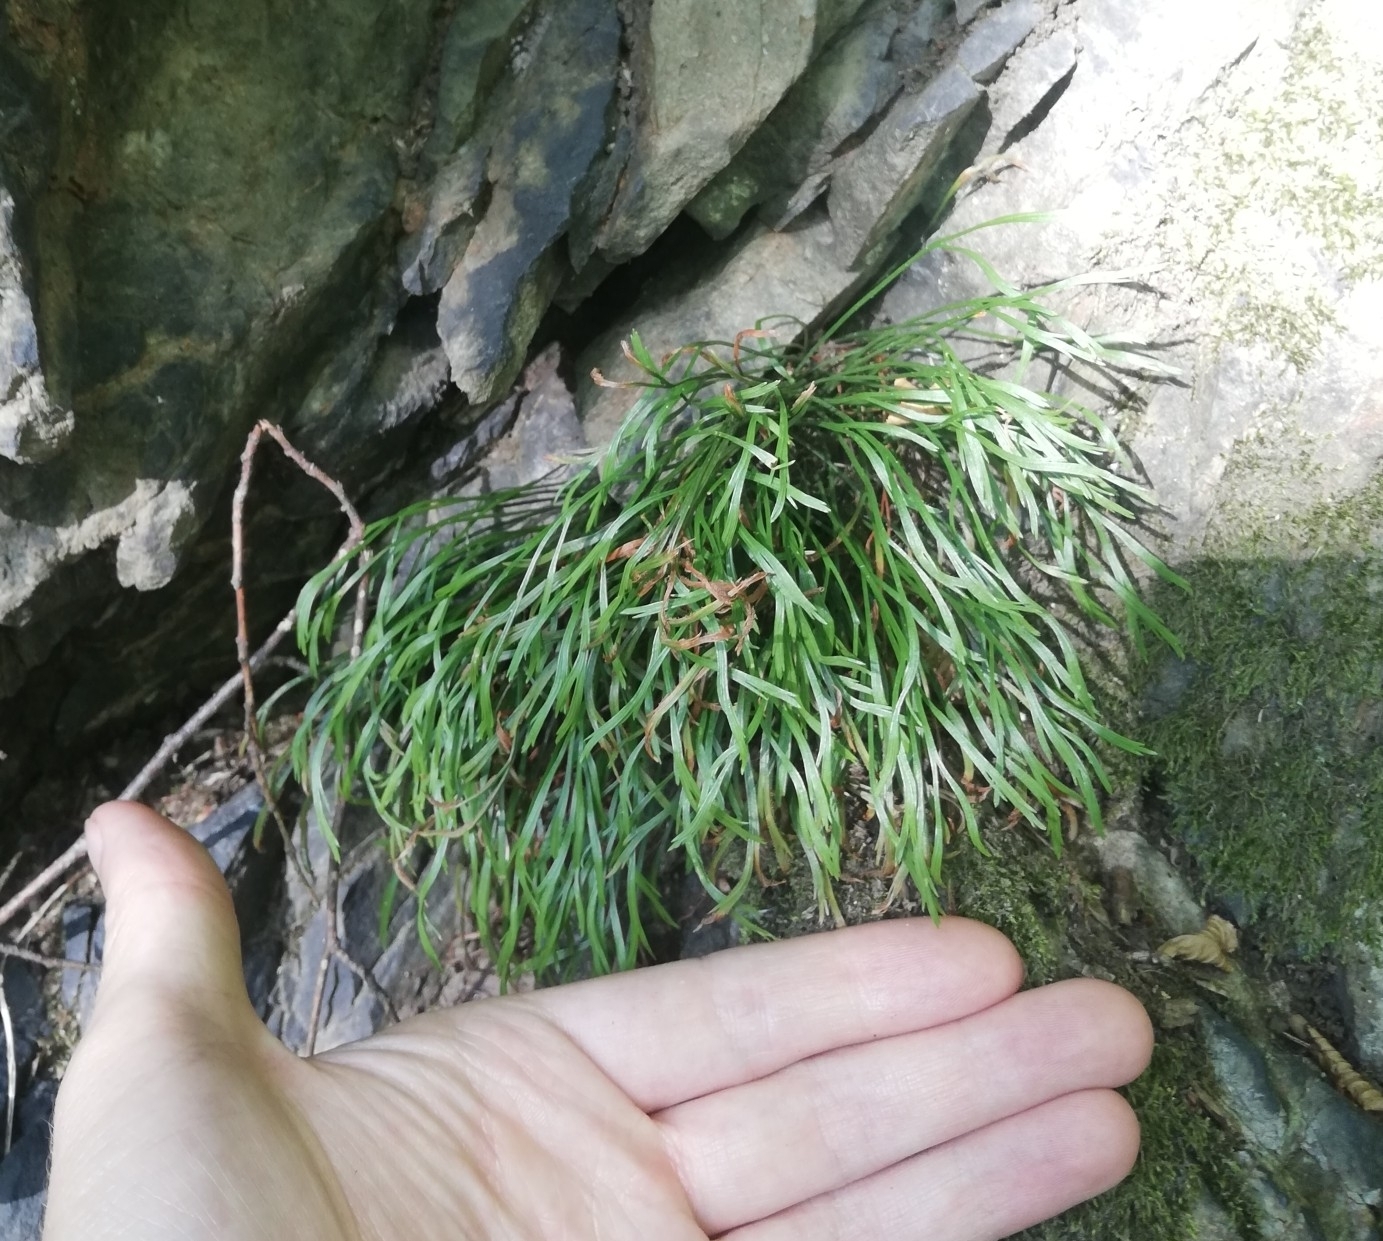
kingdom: Plantae
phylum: Tracheophyta
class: Polypodiopsida
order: Polypodiales
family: Aspleniaceae
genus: Asplenium
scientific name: Asplenium septentrionale
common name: Forked spleenwort
